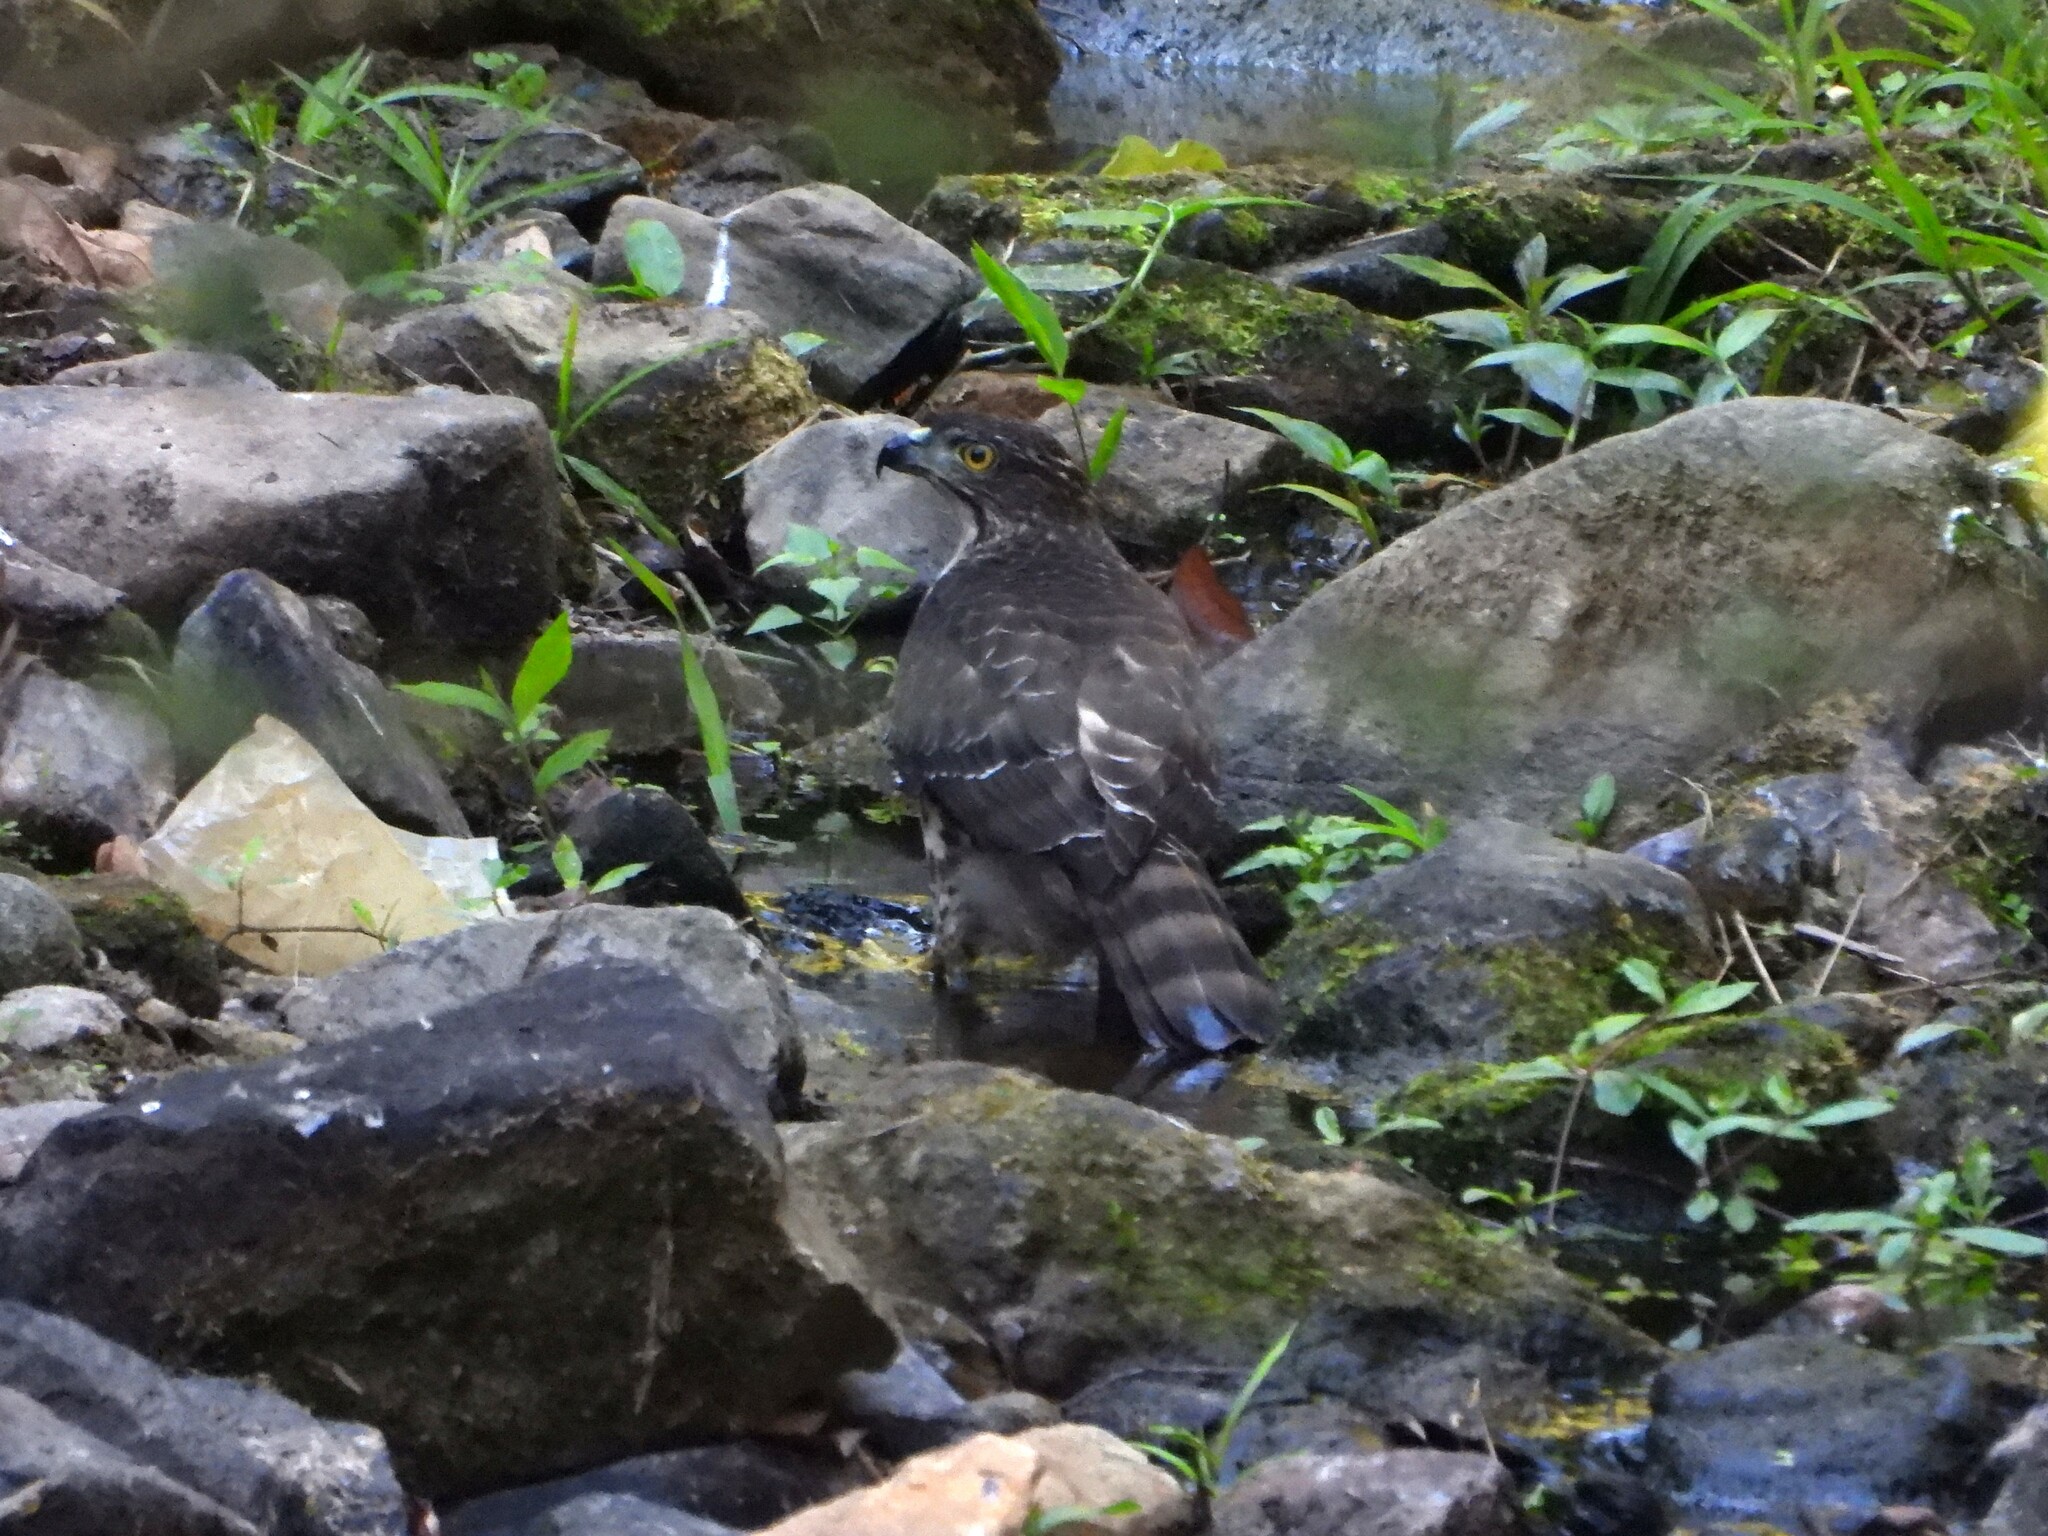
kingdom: Animalia
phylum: Chordata
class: Aves
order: Accipitriformes
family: Accipitridae
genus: Accipiter
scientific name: Accipiter trivirgatus
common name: Crested goshawk
